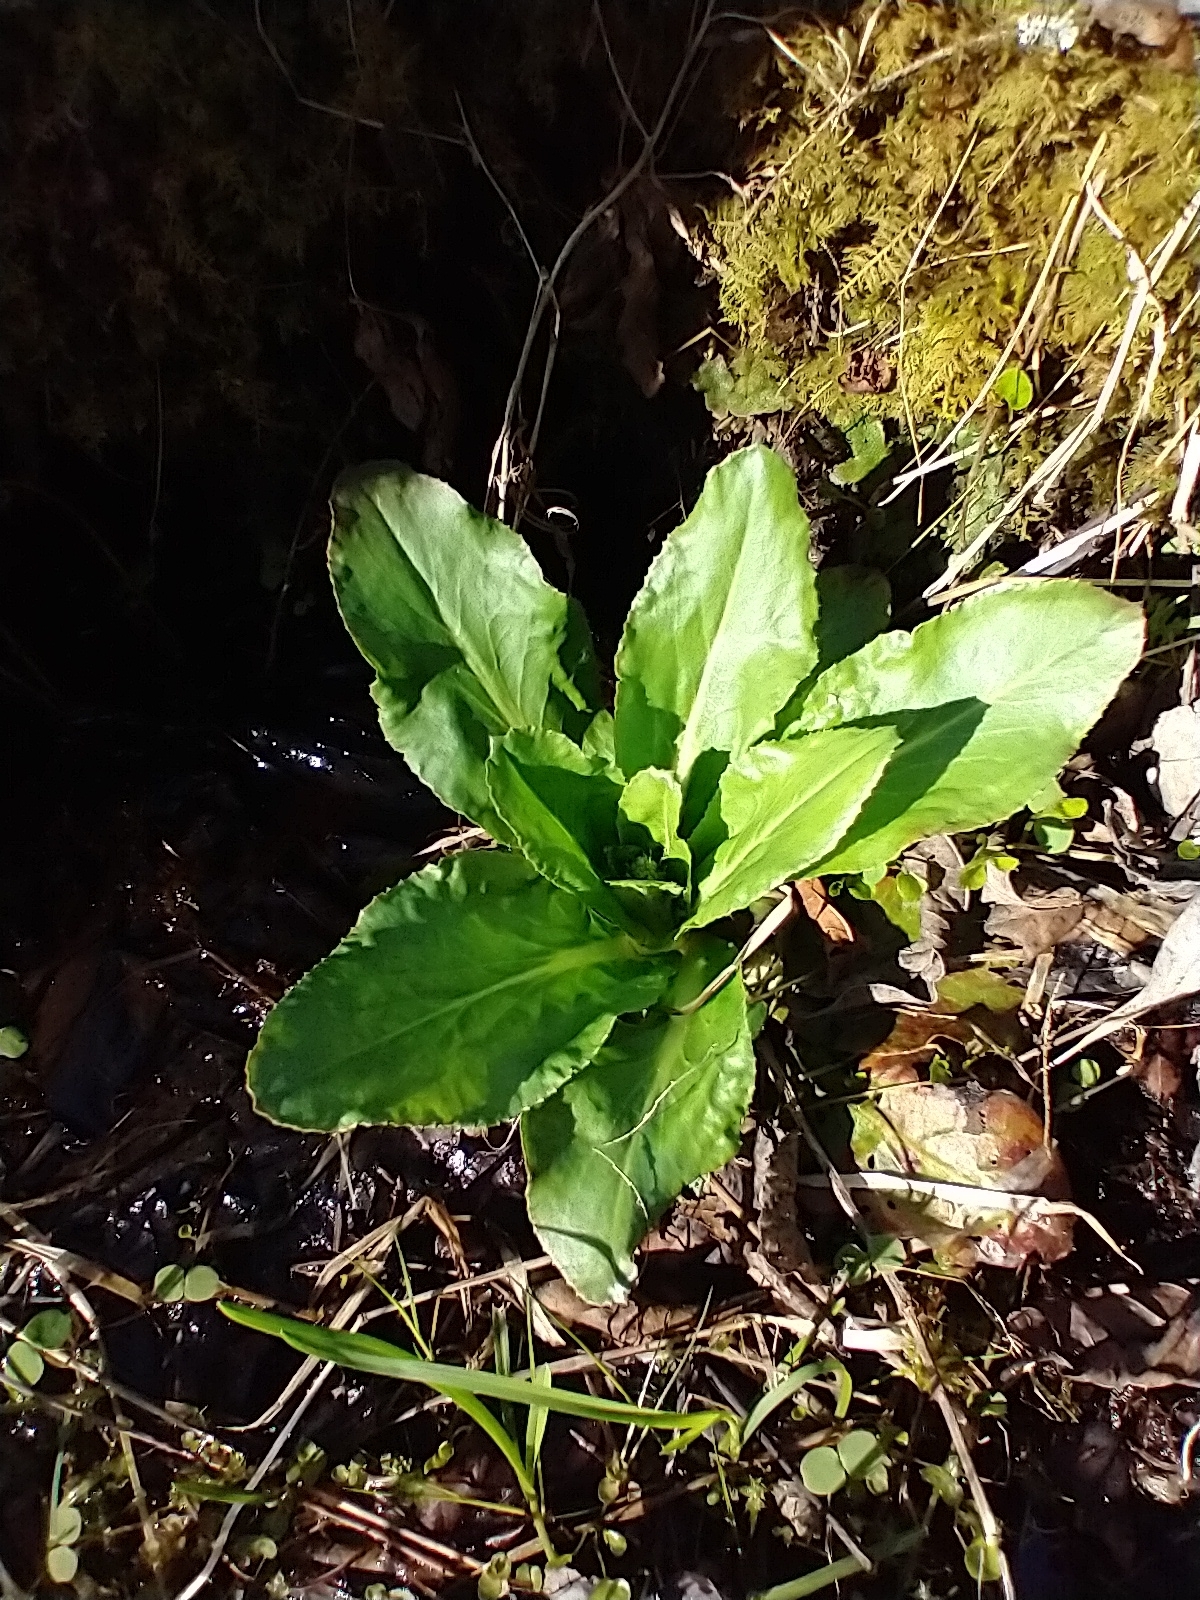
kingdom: Plantae
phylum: Tracheophyta
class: Magnoliopsida
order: Saxifragales
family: Saxifragaceae
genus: Micranthes
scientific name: Micranthes pensylvanica
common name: Marsh saxifrage
